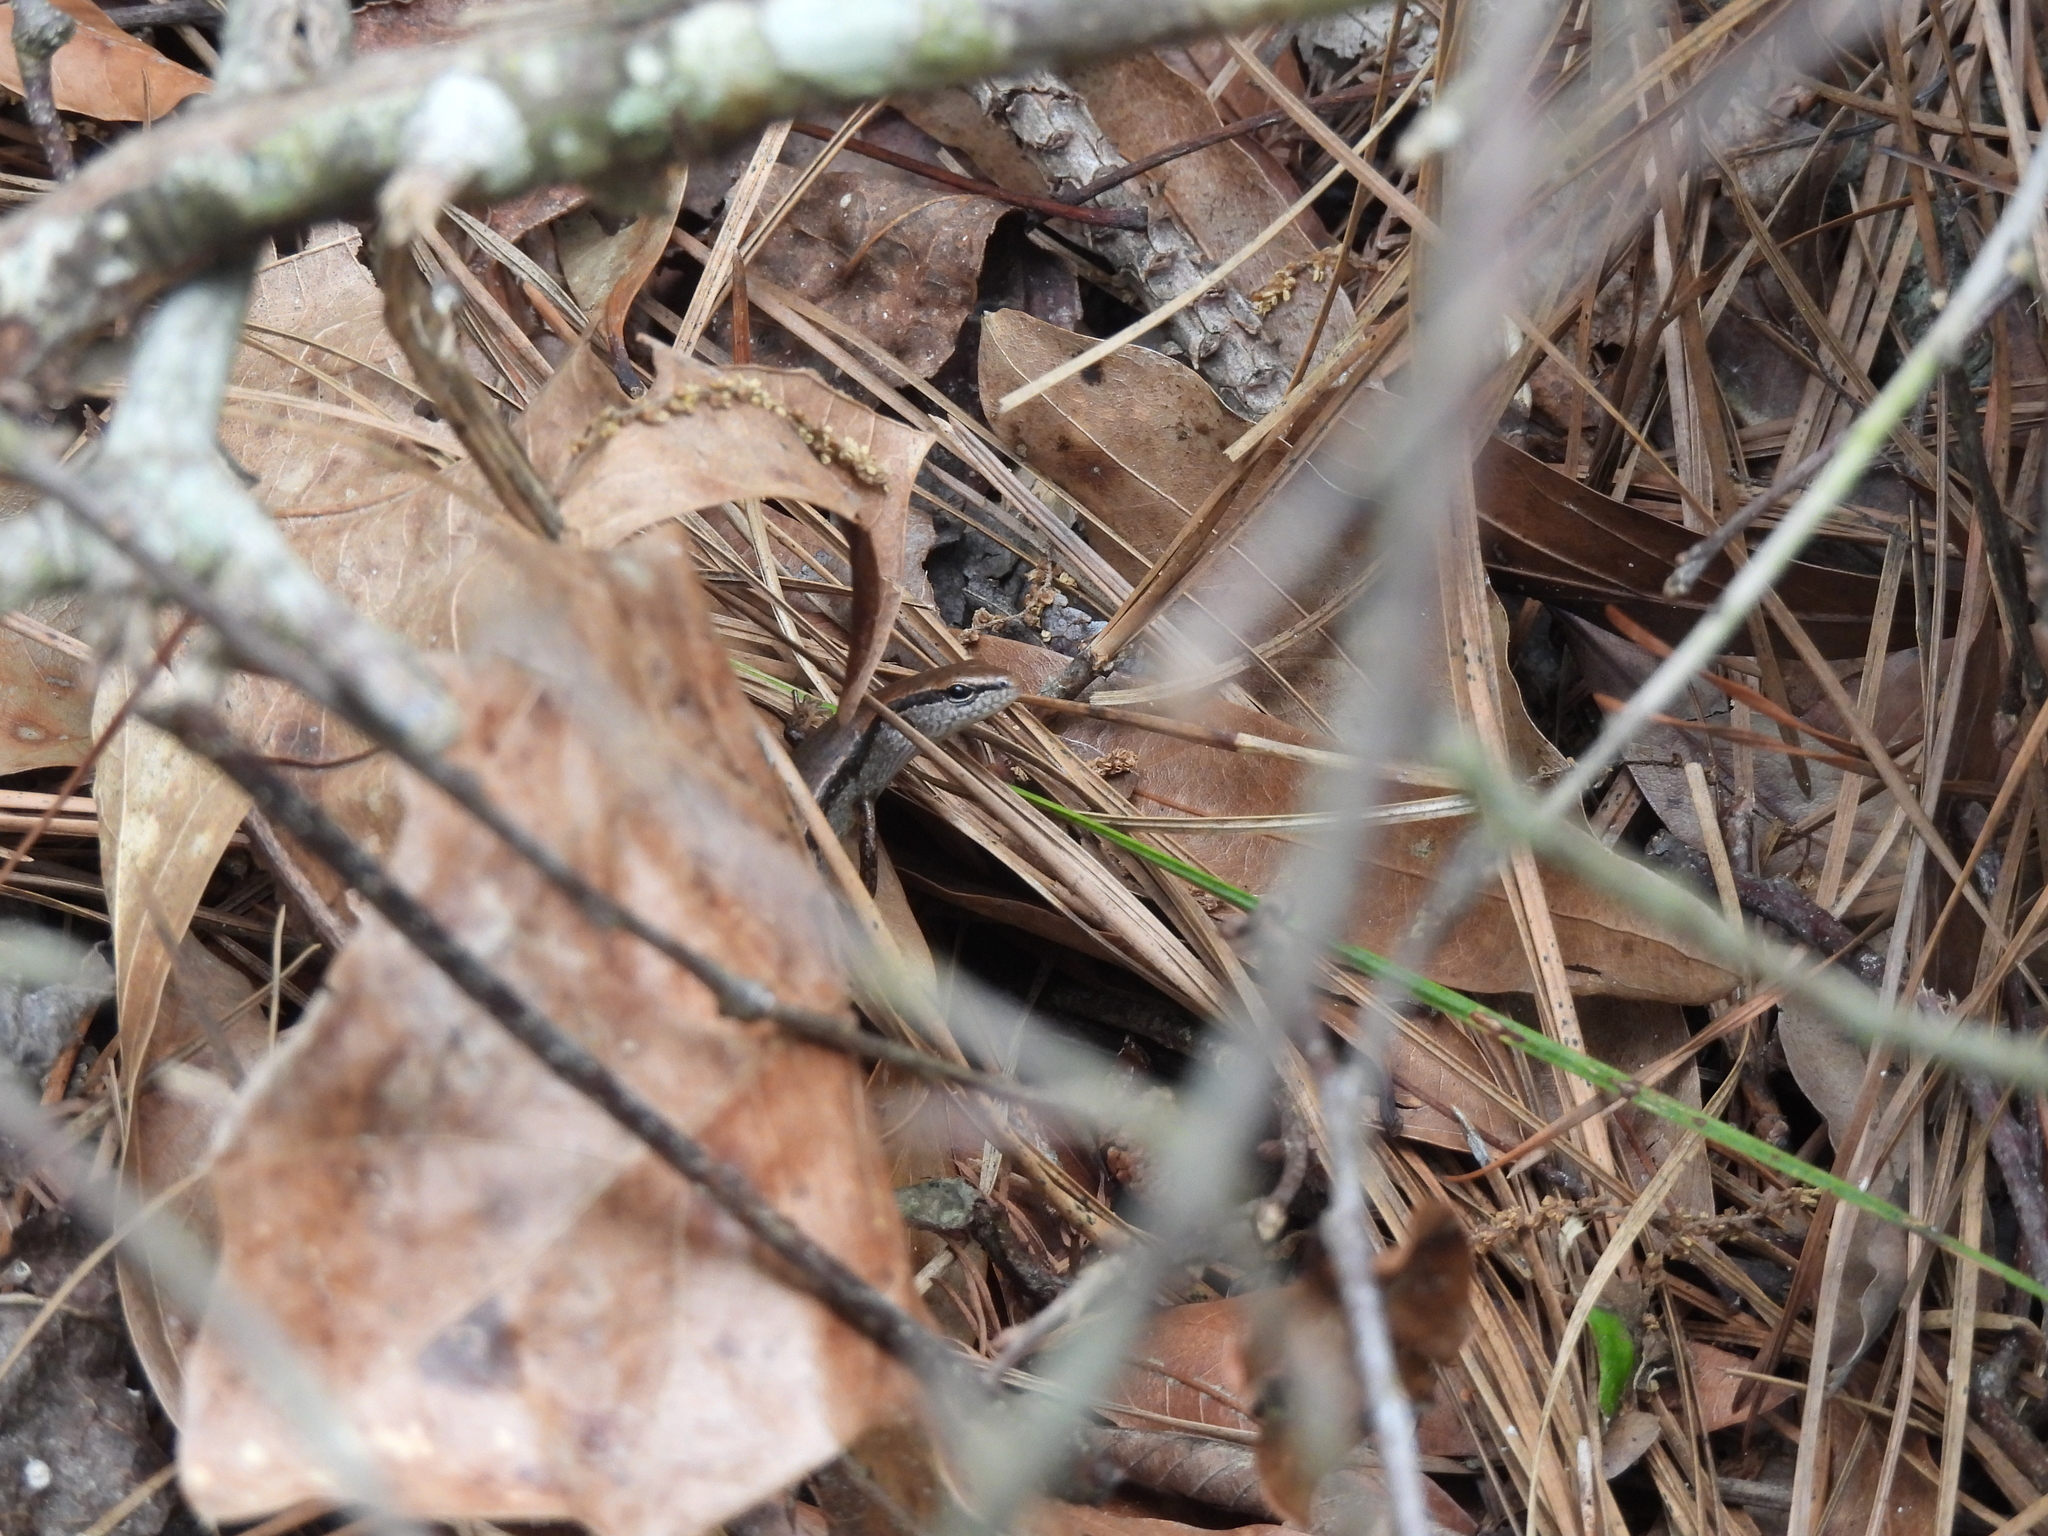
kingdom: Animalia
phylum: Chordata
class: Squamata
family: Scincidae
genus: Scincella
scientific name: Scincella lateralis
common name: Ground skink
